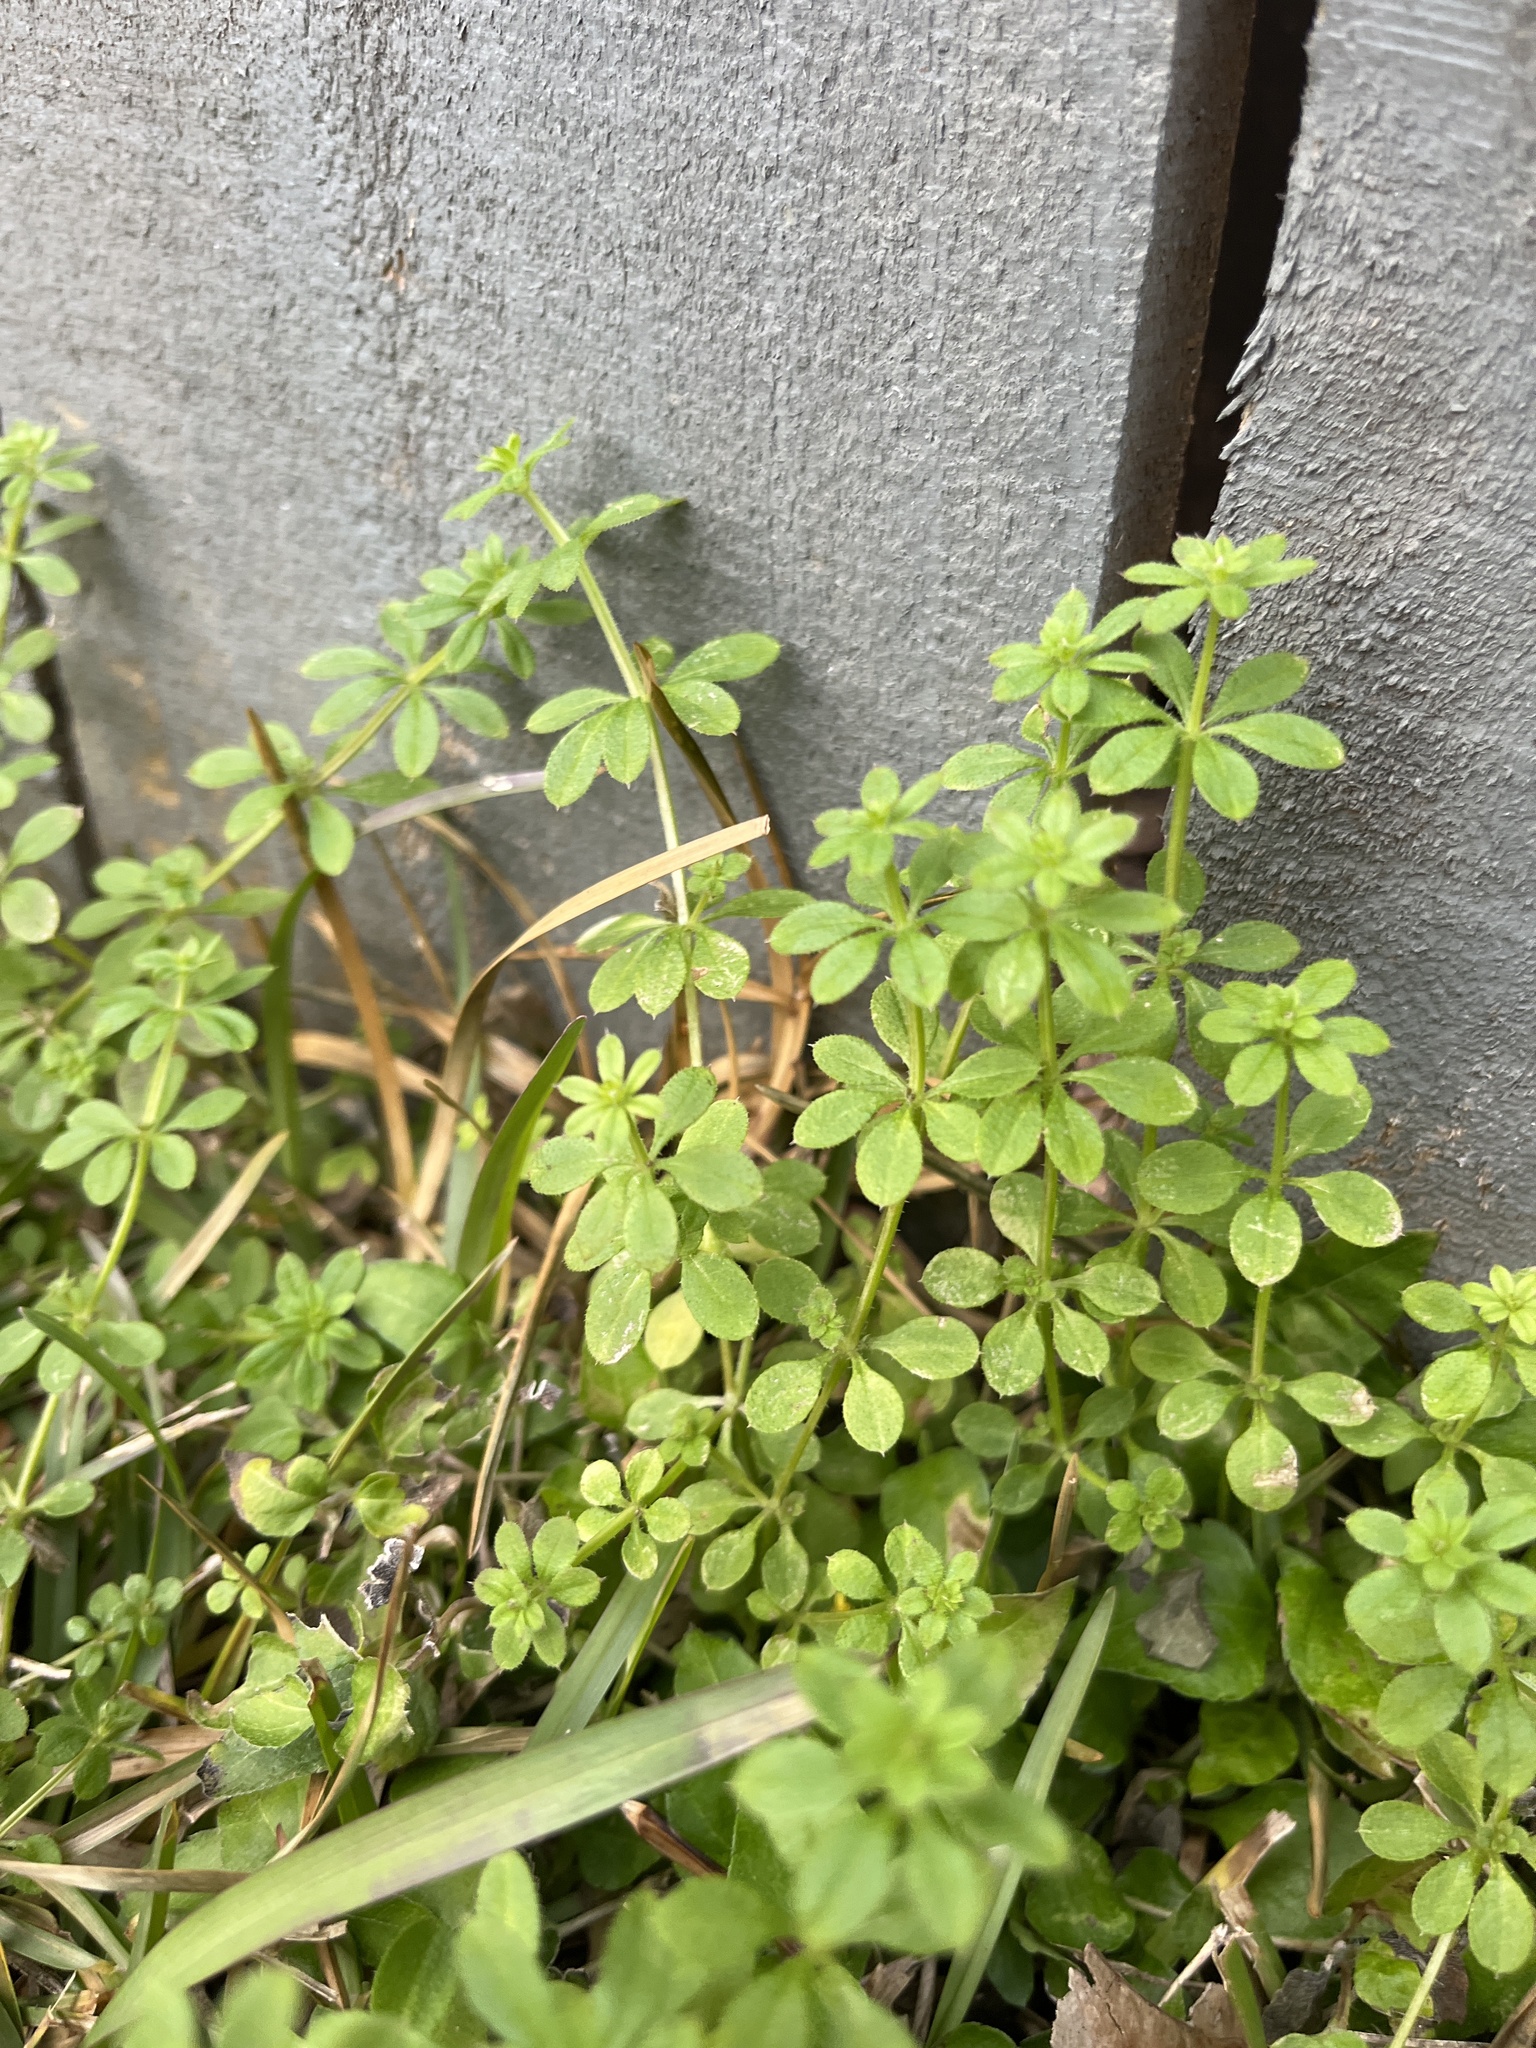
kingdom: Plantae
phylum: Tracheophyta
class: Magnoliopsida
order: Gentianales
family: Rubiaceae
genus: Galium
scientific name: Galium aparine
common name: Cleavers
